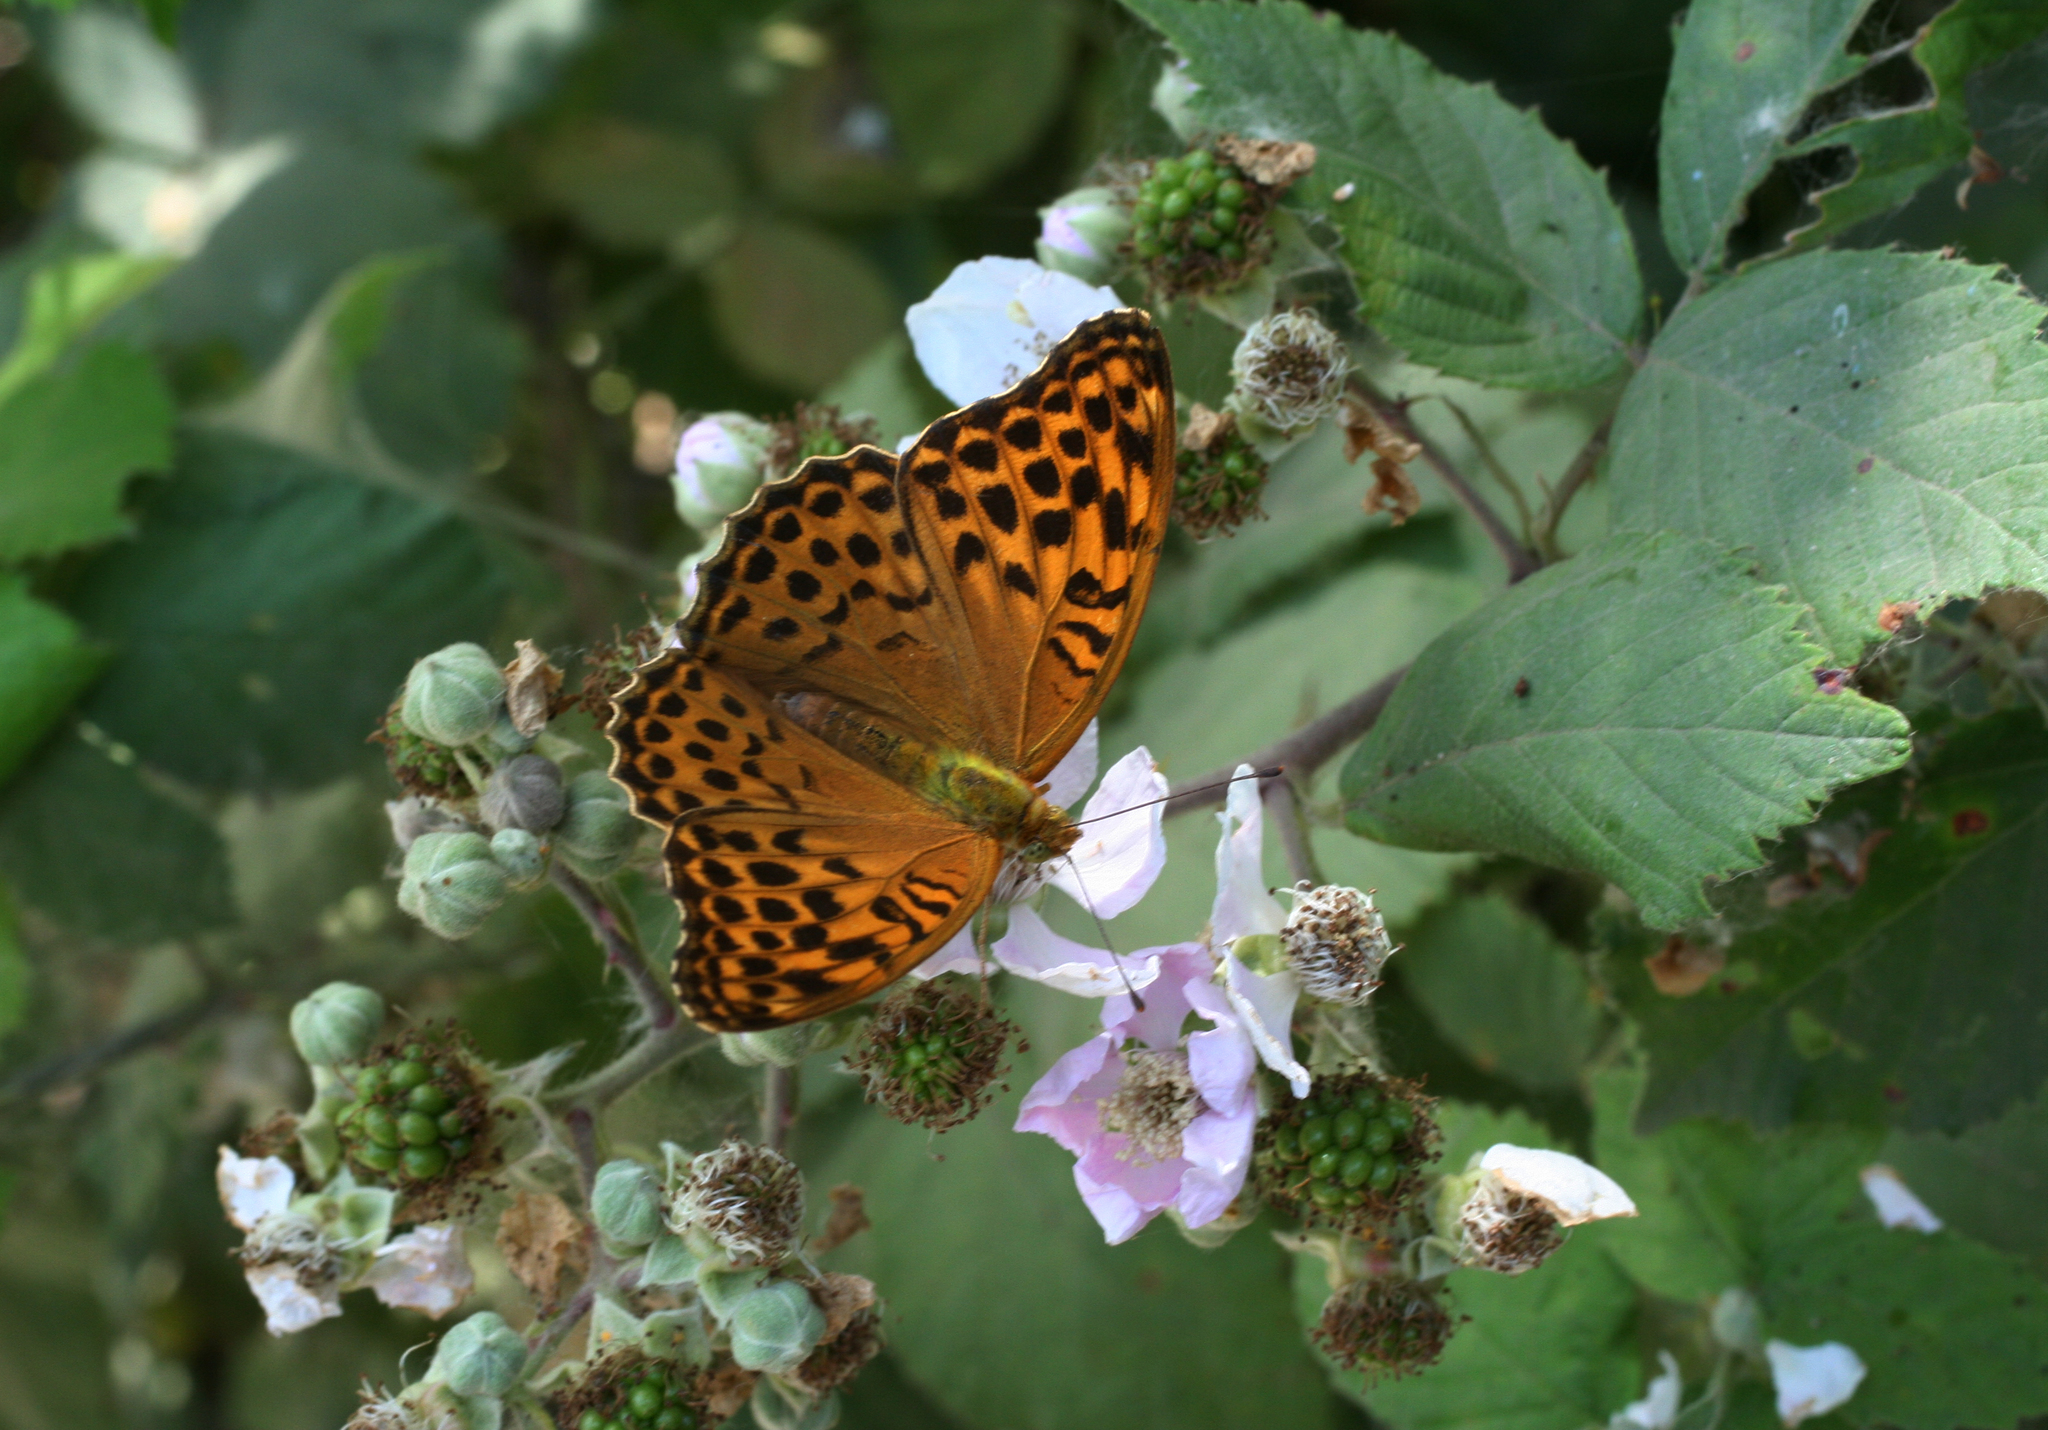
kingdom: Animalia
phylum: Arthropoda
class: Insecta
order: Lepidoptera
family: Nymphalidae
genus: Argynnis
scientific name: Argynnis paphia
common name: Silver-washed fritillary
